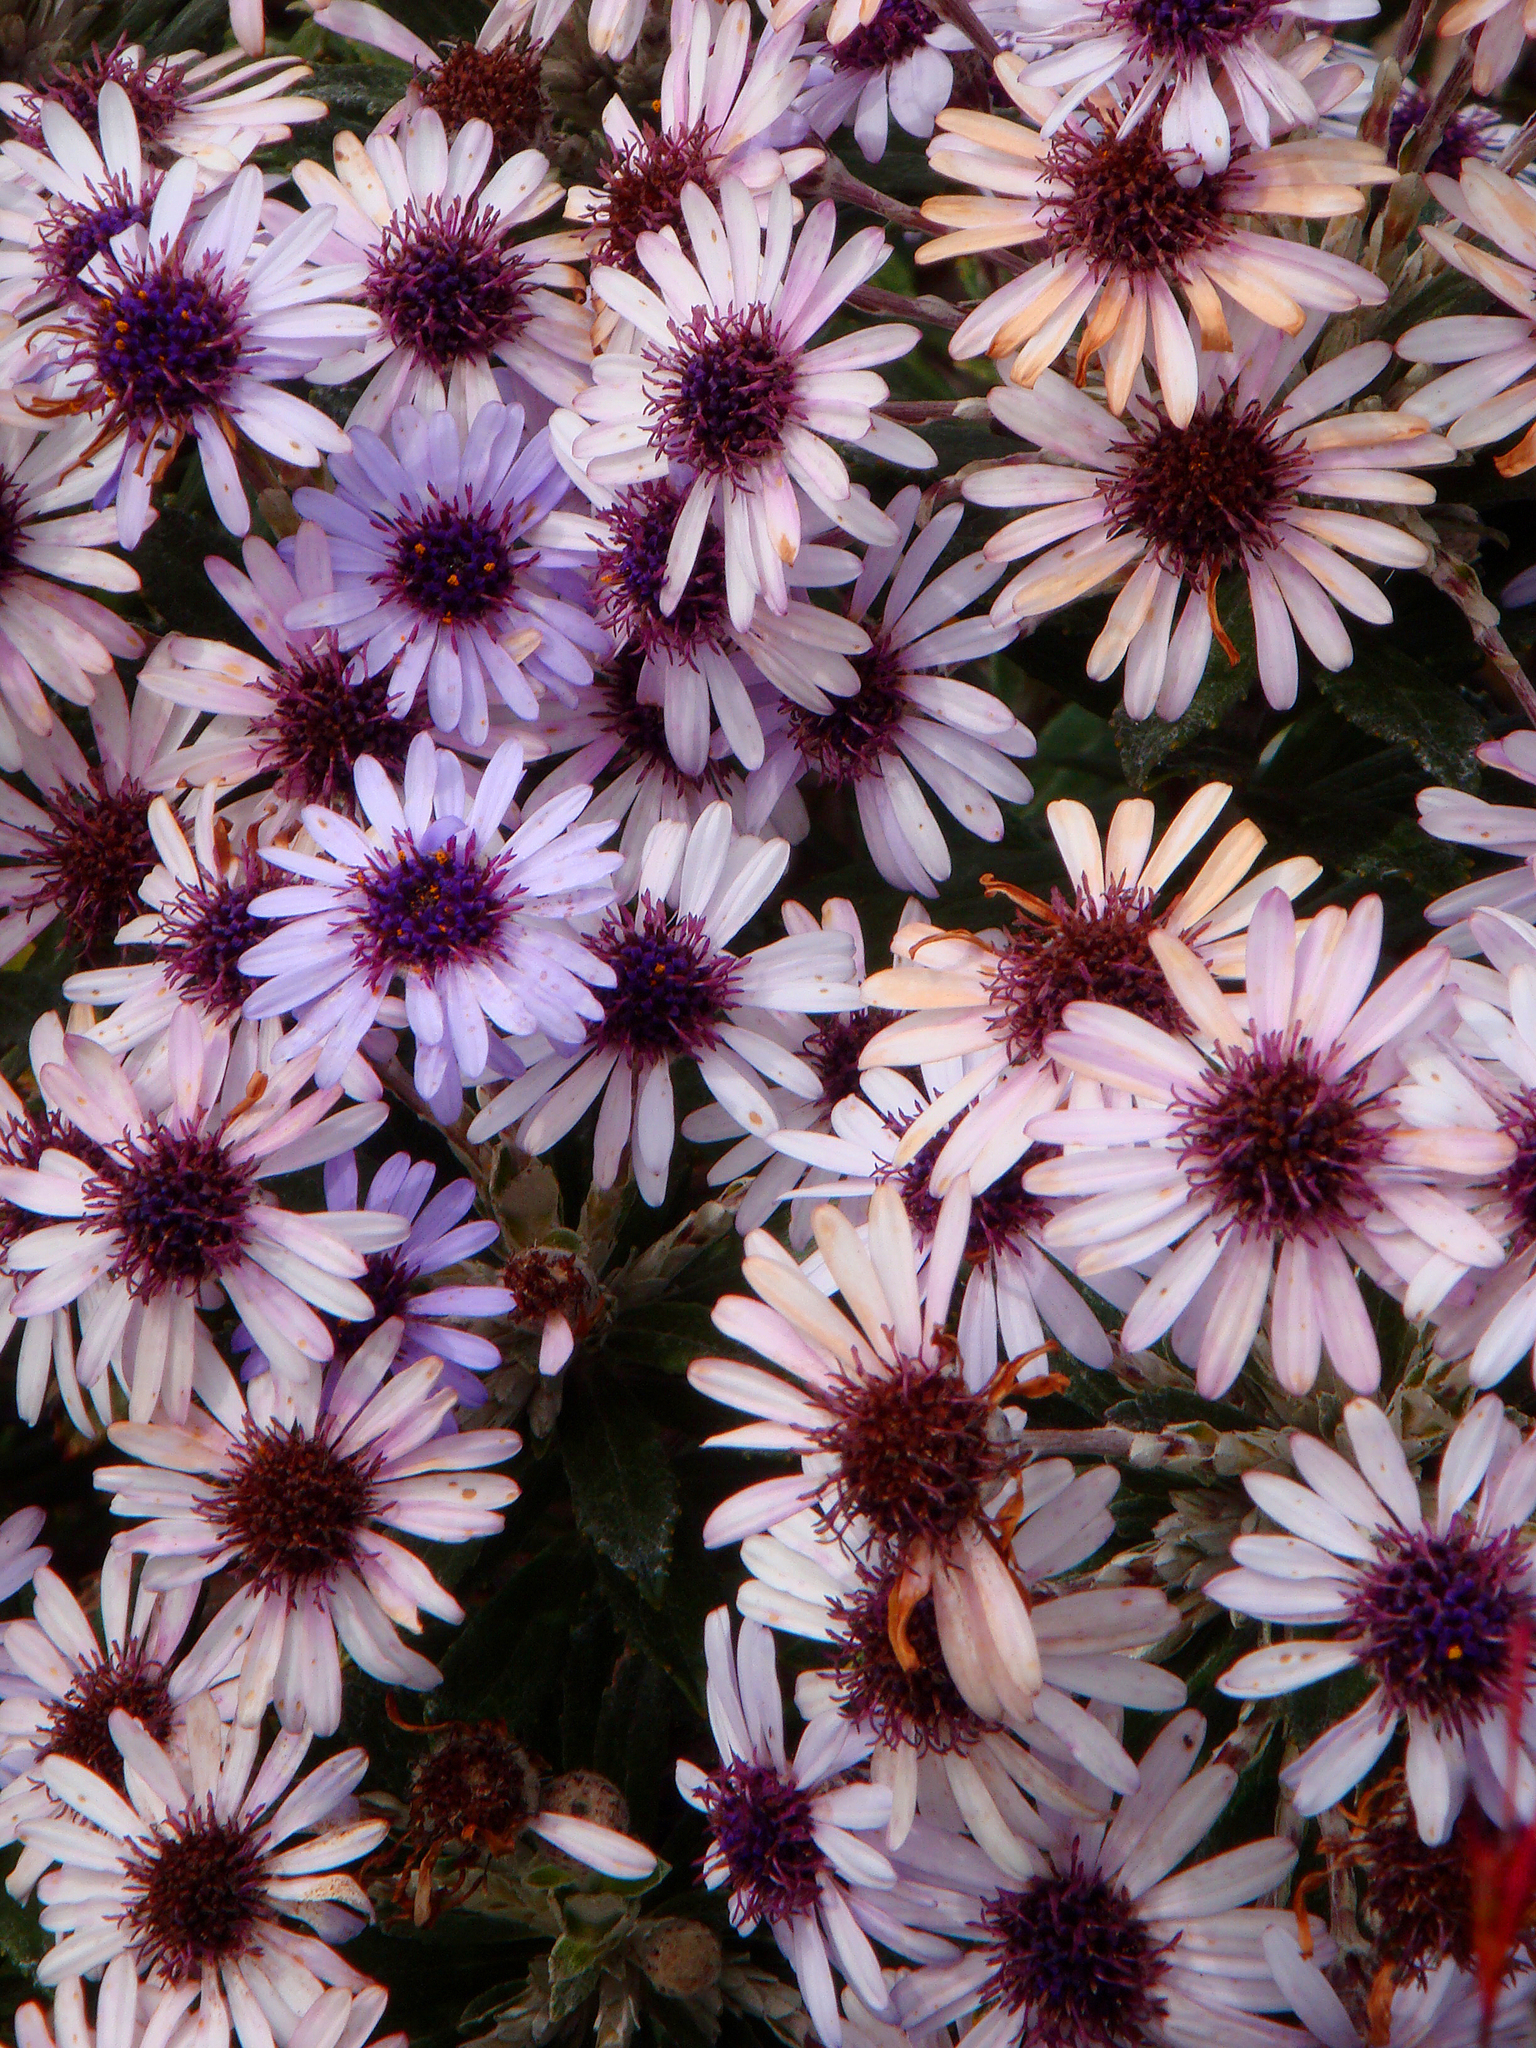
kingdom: Plantae
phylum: Tracheophyta
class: Magnoliopsida
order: Asterales
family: Asteraceae
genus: Macrolearia
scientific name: Macrolearia semidentata
